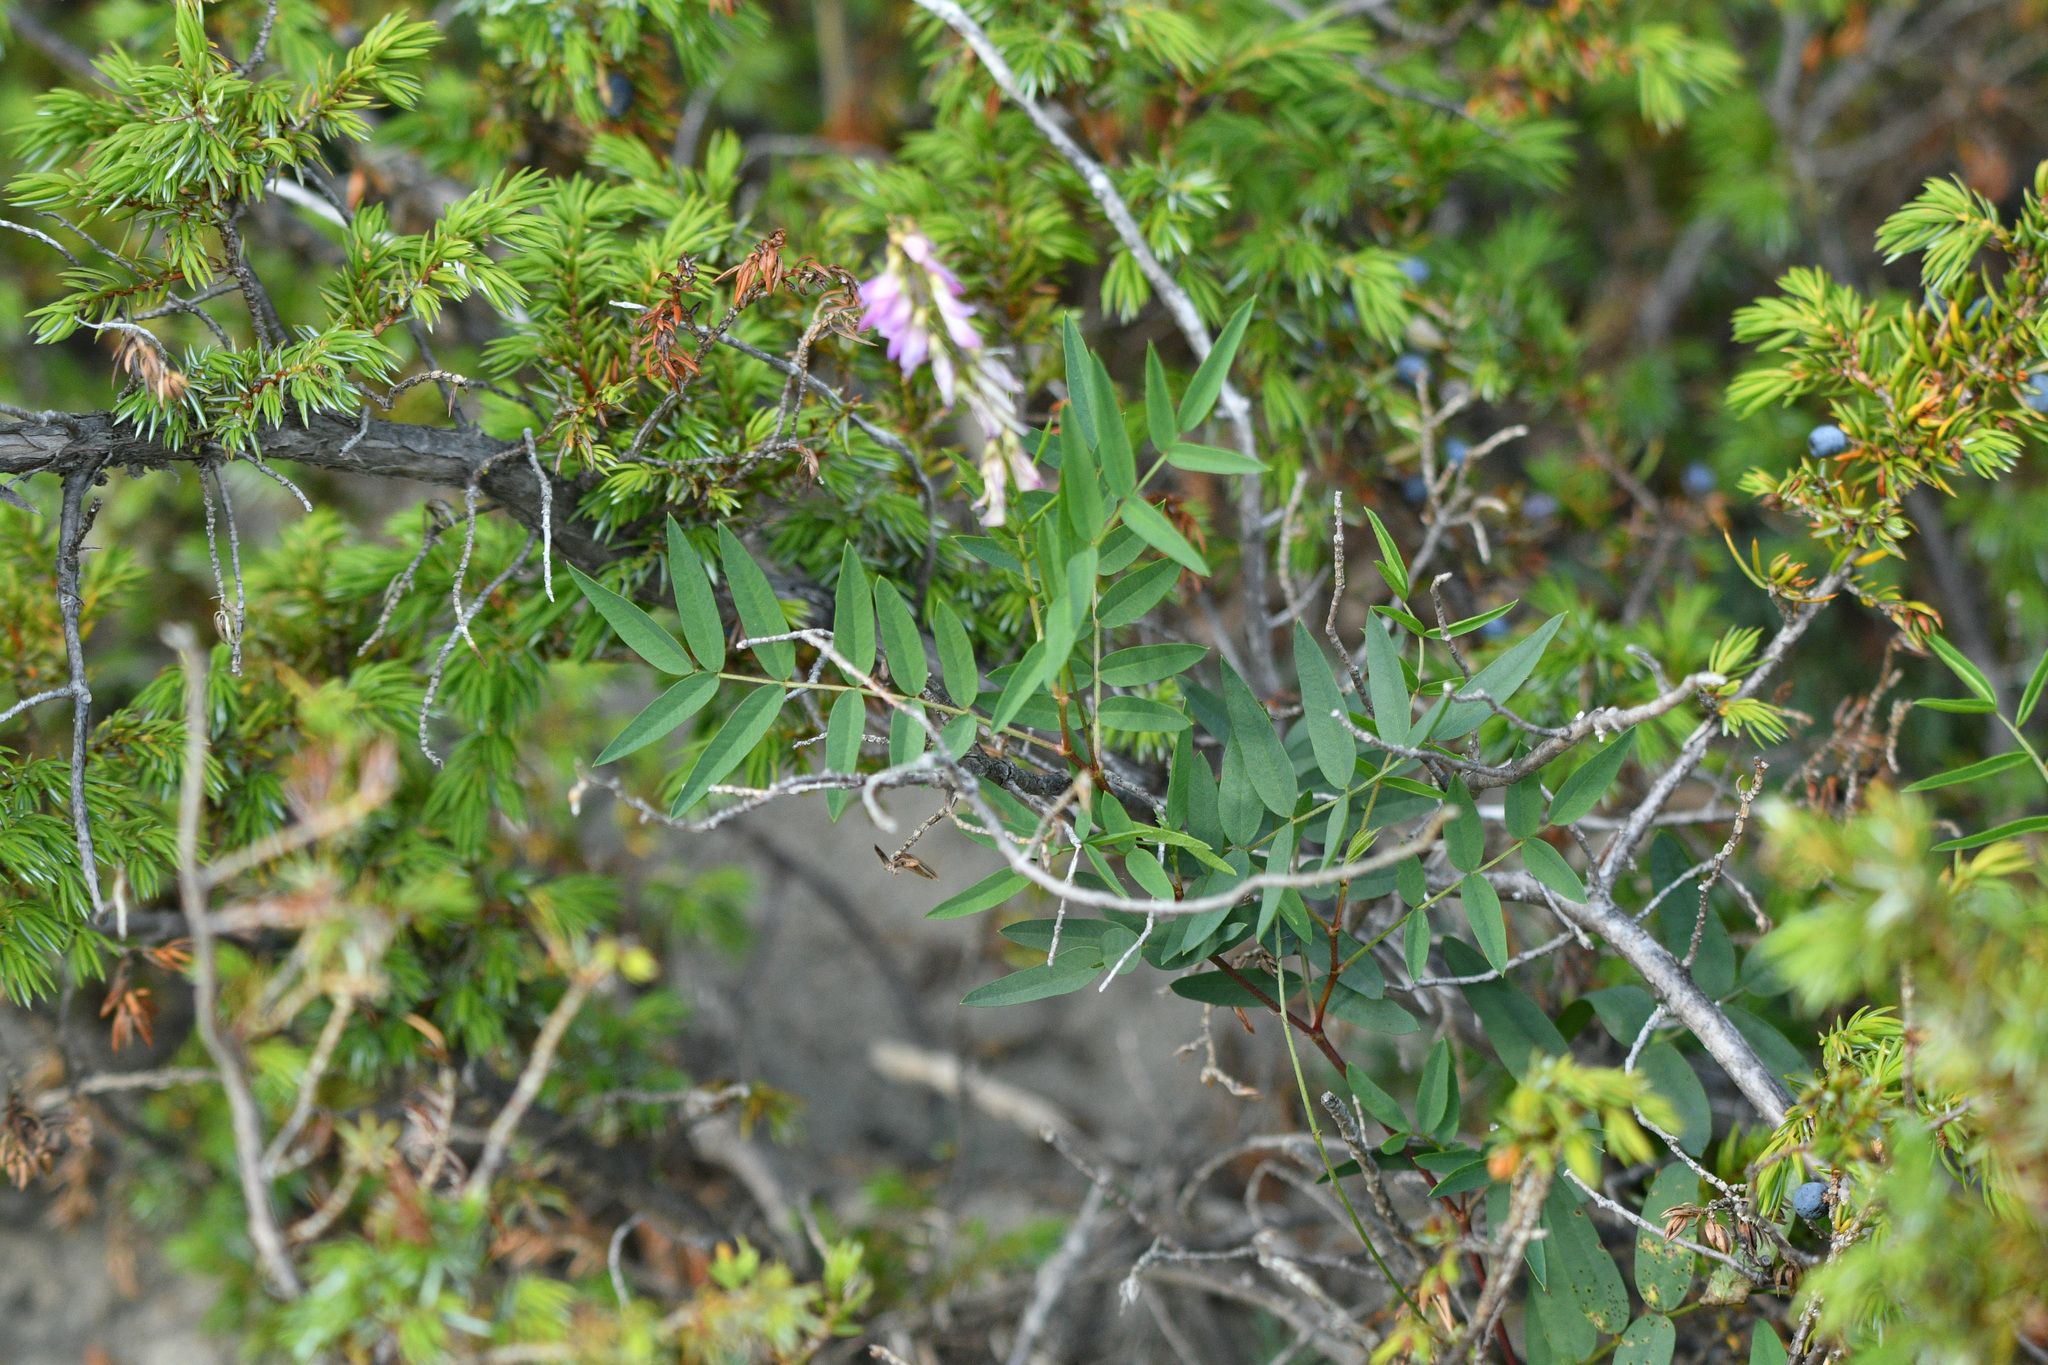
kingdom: Plantae
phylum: Tracheophyta
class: Magnoliopsida
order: Fabales
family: Fabaceae
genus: Hedysarum
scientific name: Hedysarum alpinum
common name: Alpine sweet-vetch
